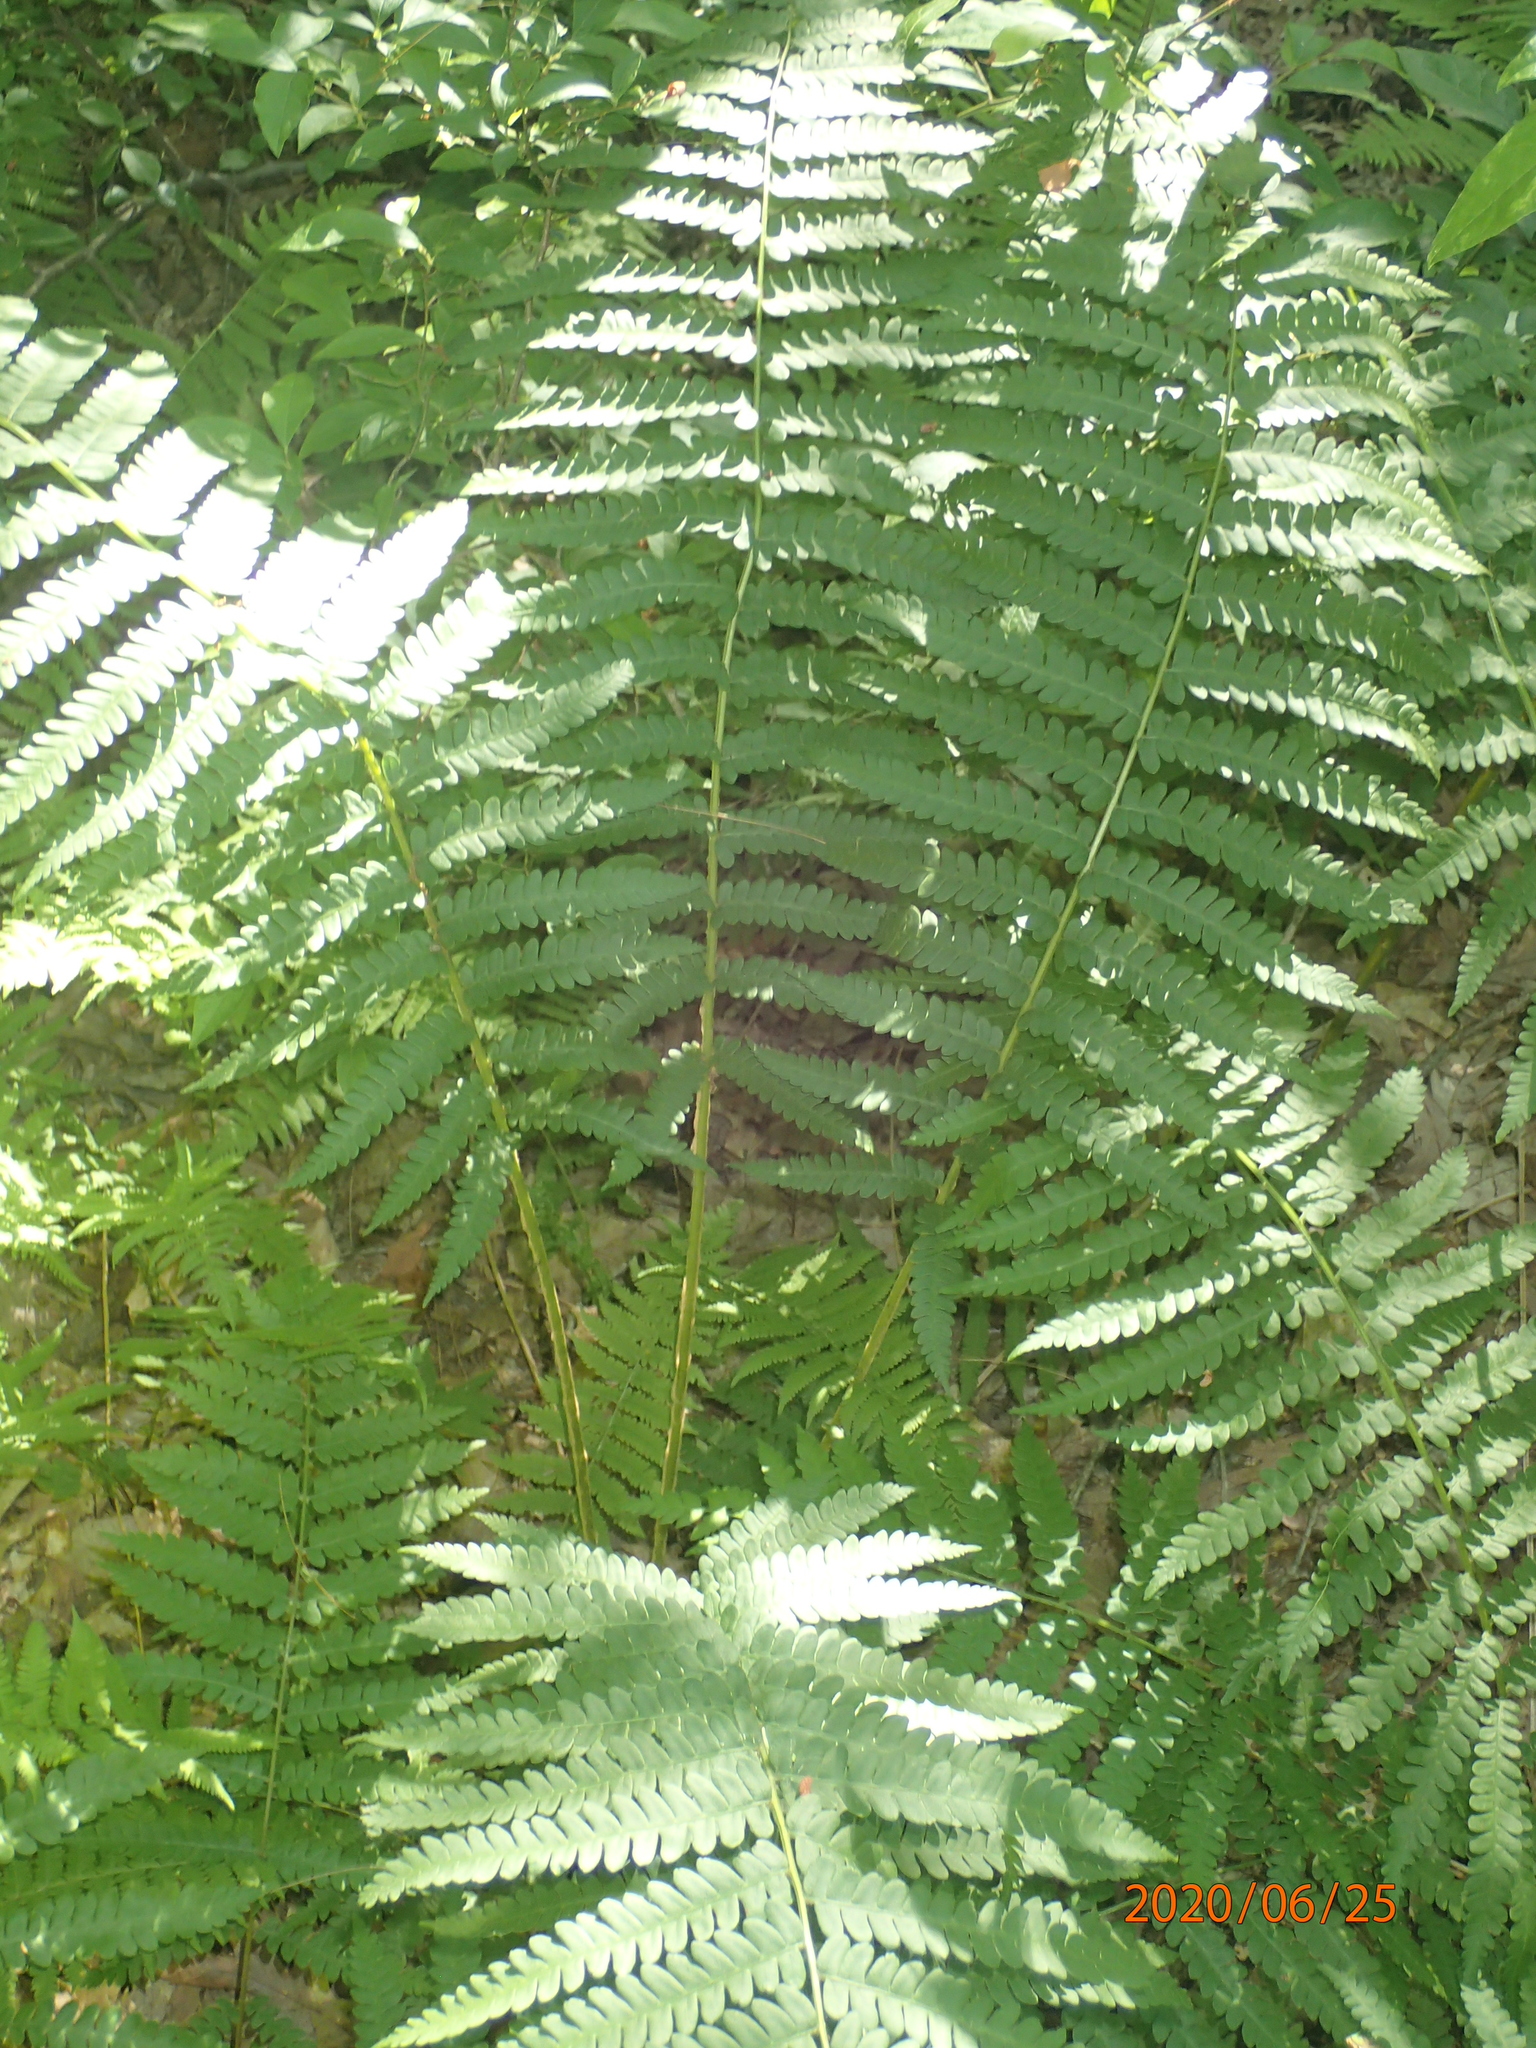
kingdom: Plantae
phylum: Tracheophyta
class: Polypodiopsida
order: Osmundales
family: Osmundaceae
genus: Osmundastrum
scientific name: Osmundastrum cinnamomeum
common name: Cinnamon fern
